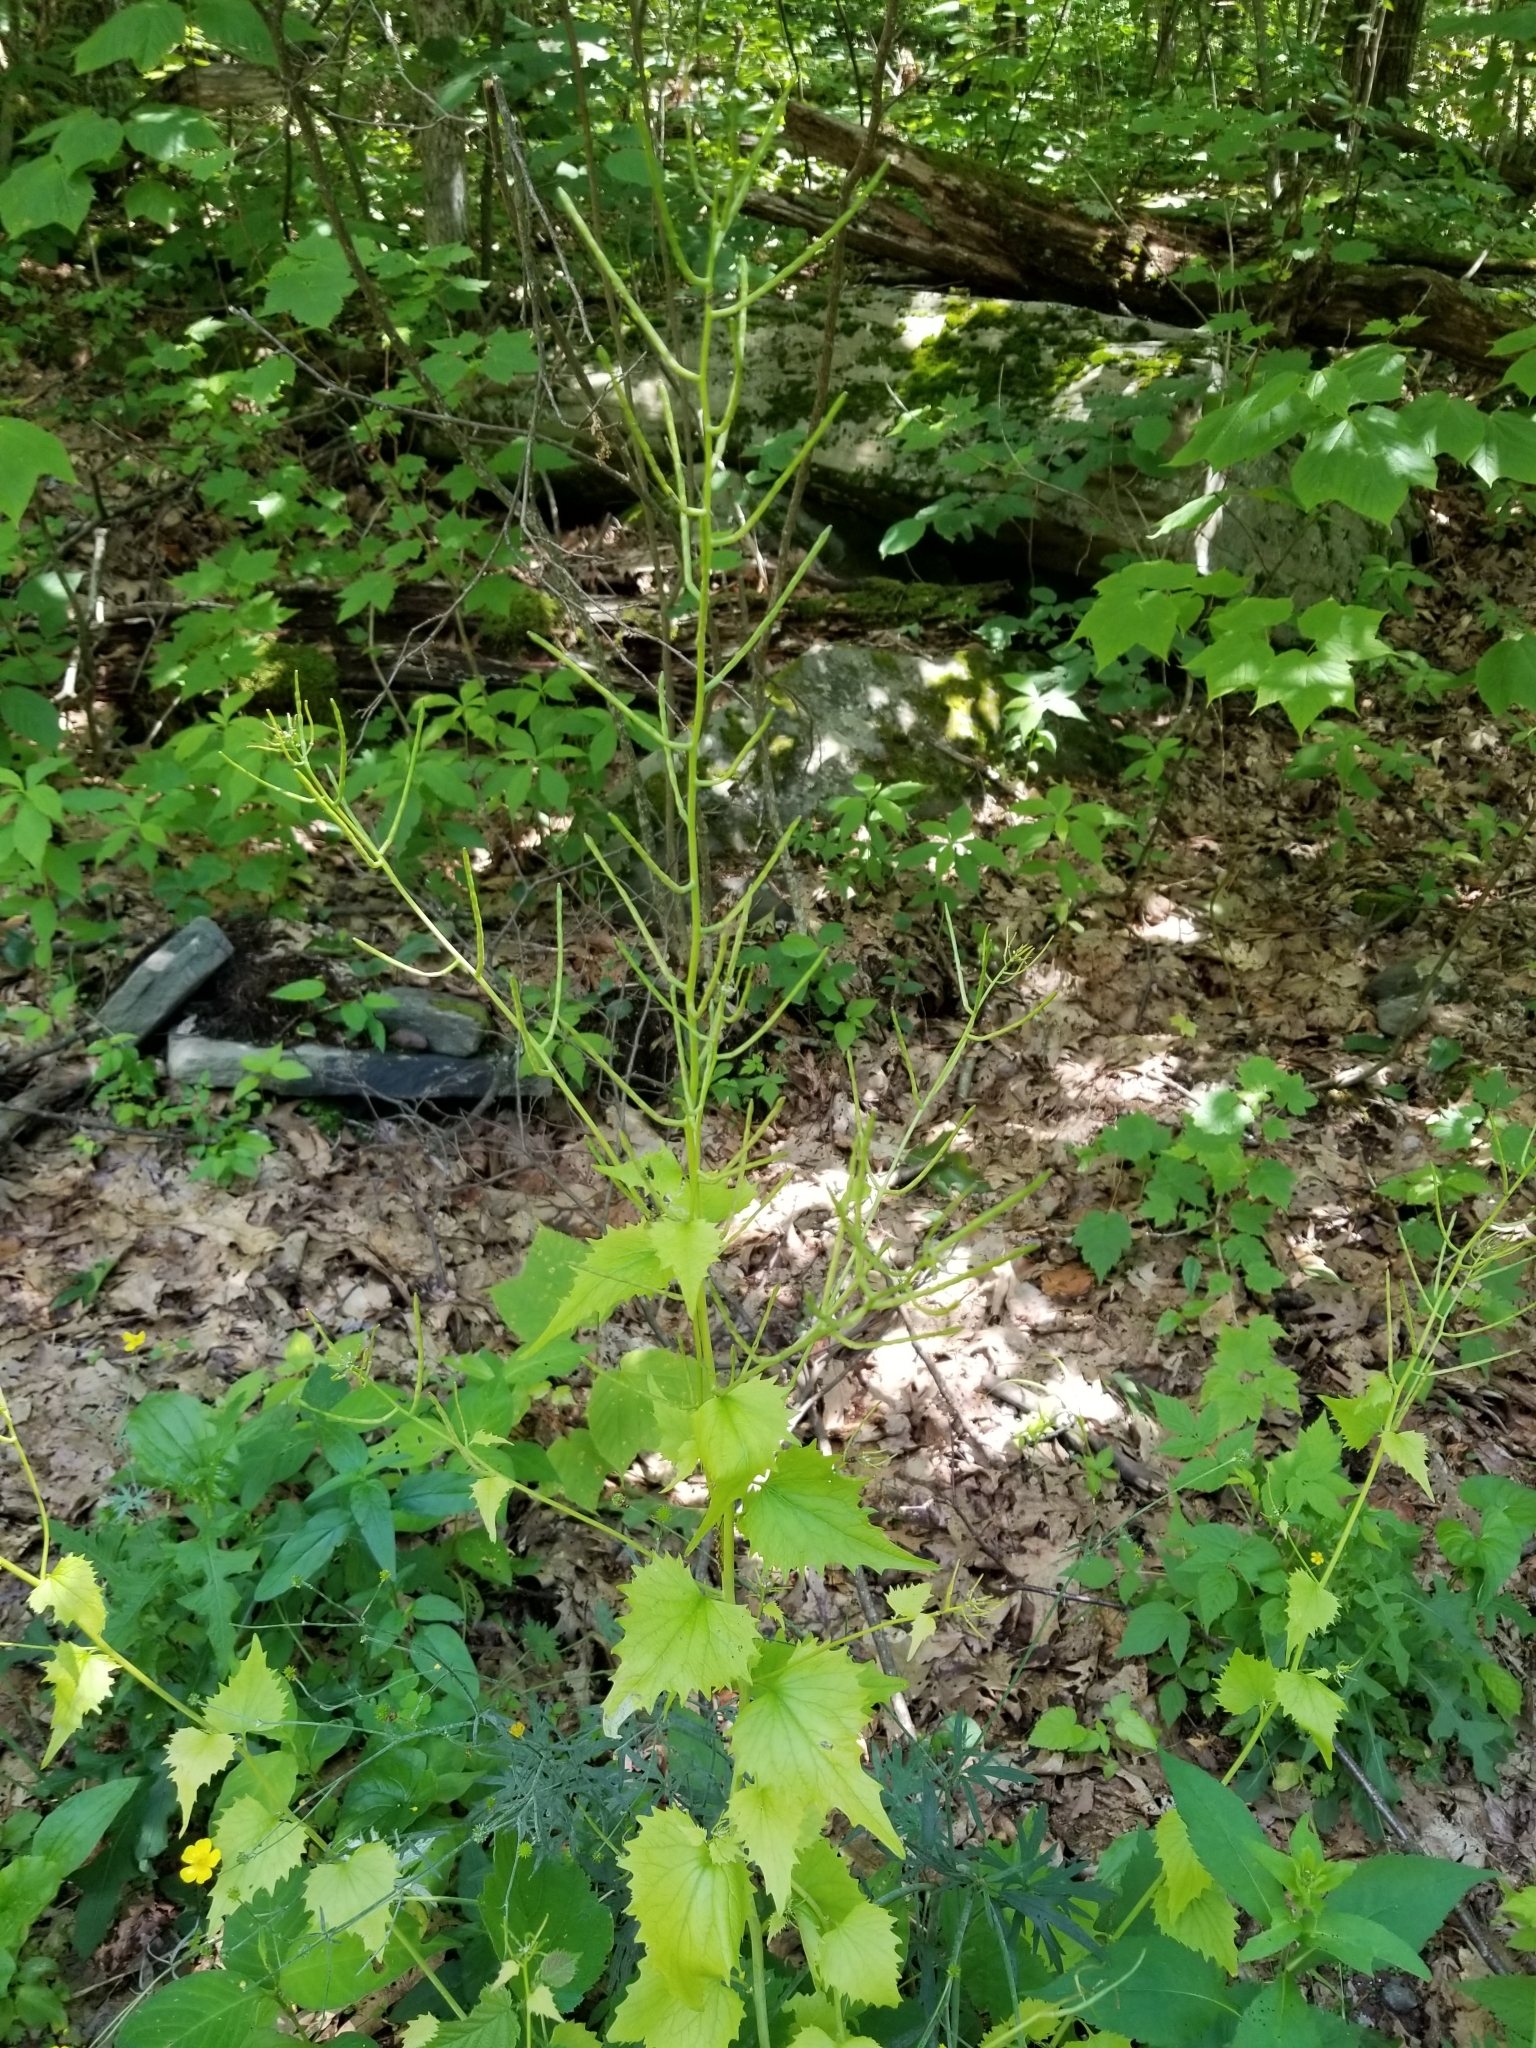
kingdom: Plantae
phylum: Tracheophyta
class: Magnoliopsida
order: Brassicales
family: Brassicaceae
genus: Alliaria
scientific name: Alliaria petiolata
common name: Garlic mustard
